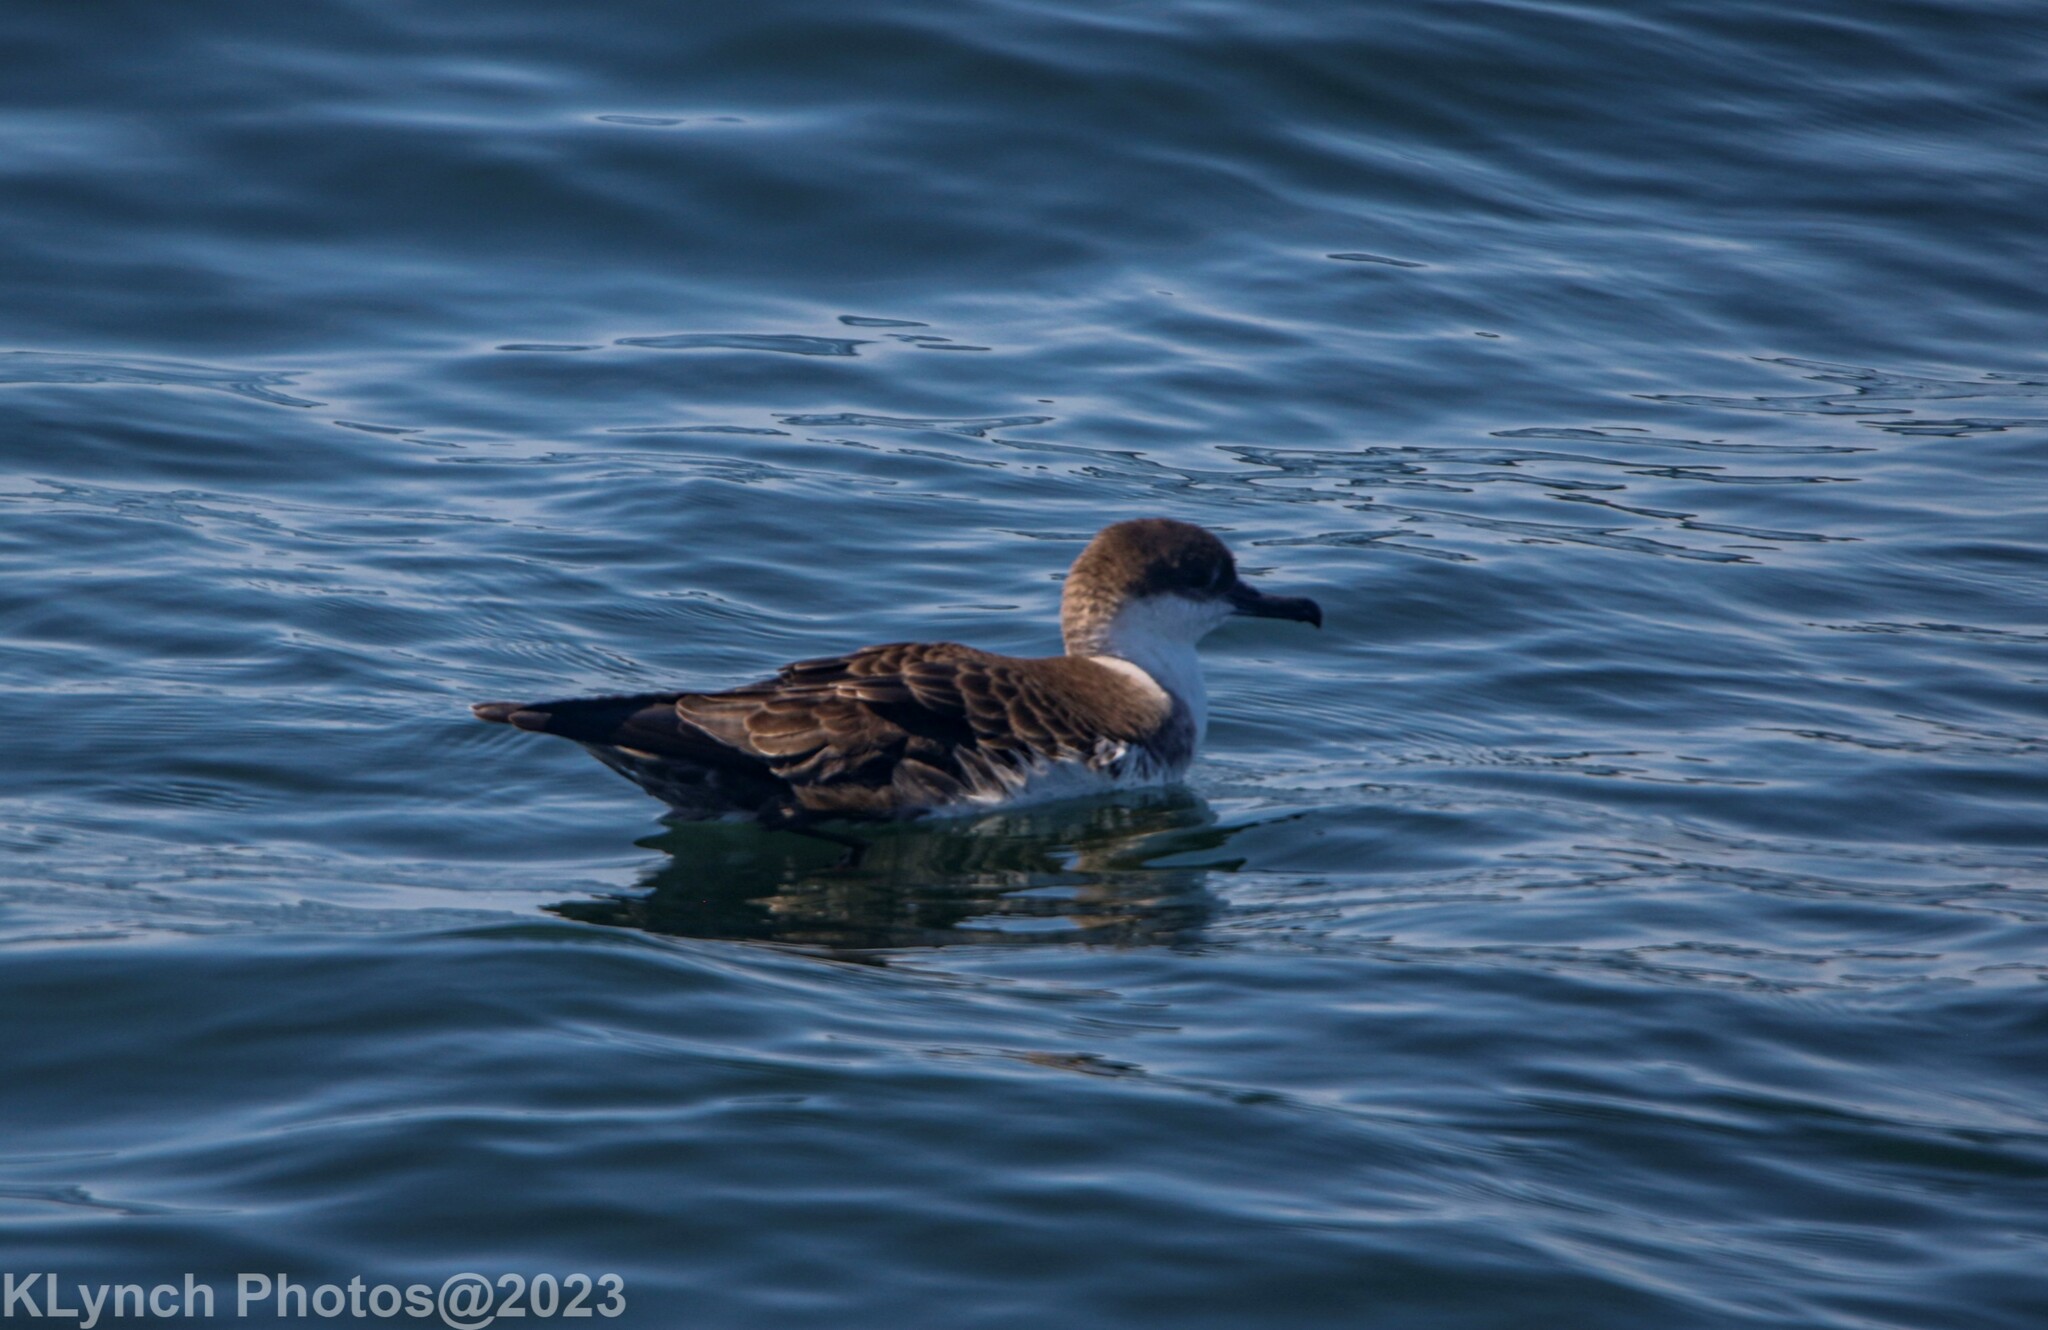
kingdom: Animalia
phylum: Chordata
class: Aves
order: Procellariiformes
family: Procellariidae
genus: Puffinus
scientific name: Puffinus gravis
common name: Great shearwater
